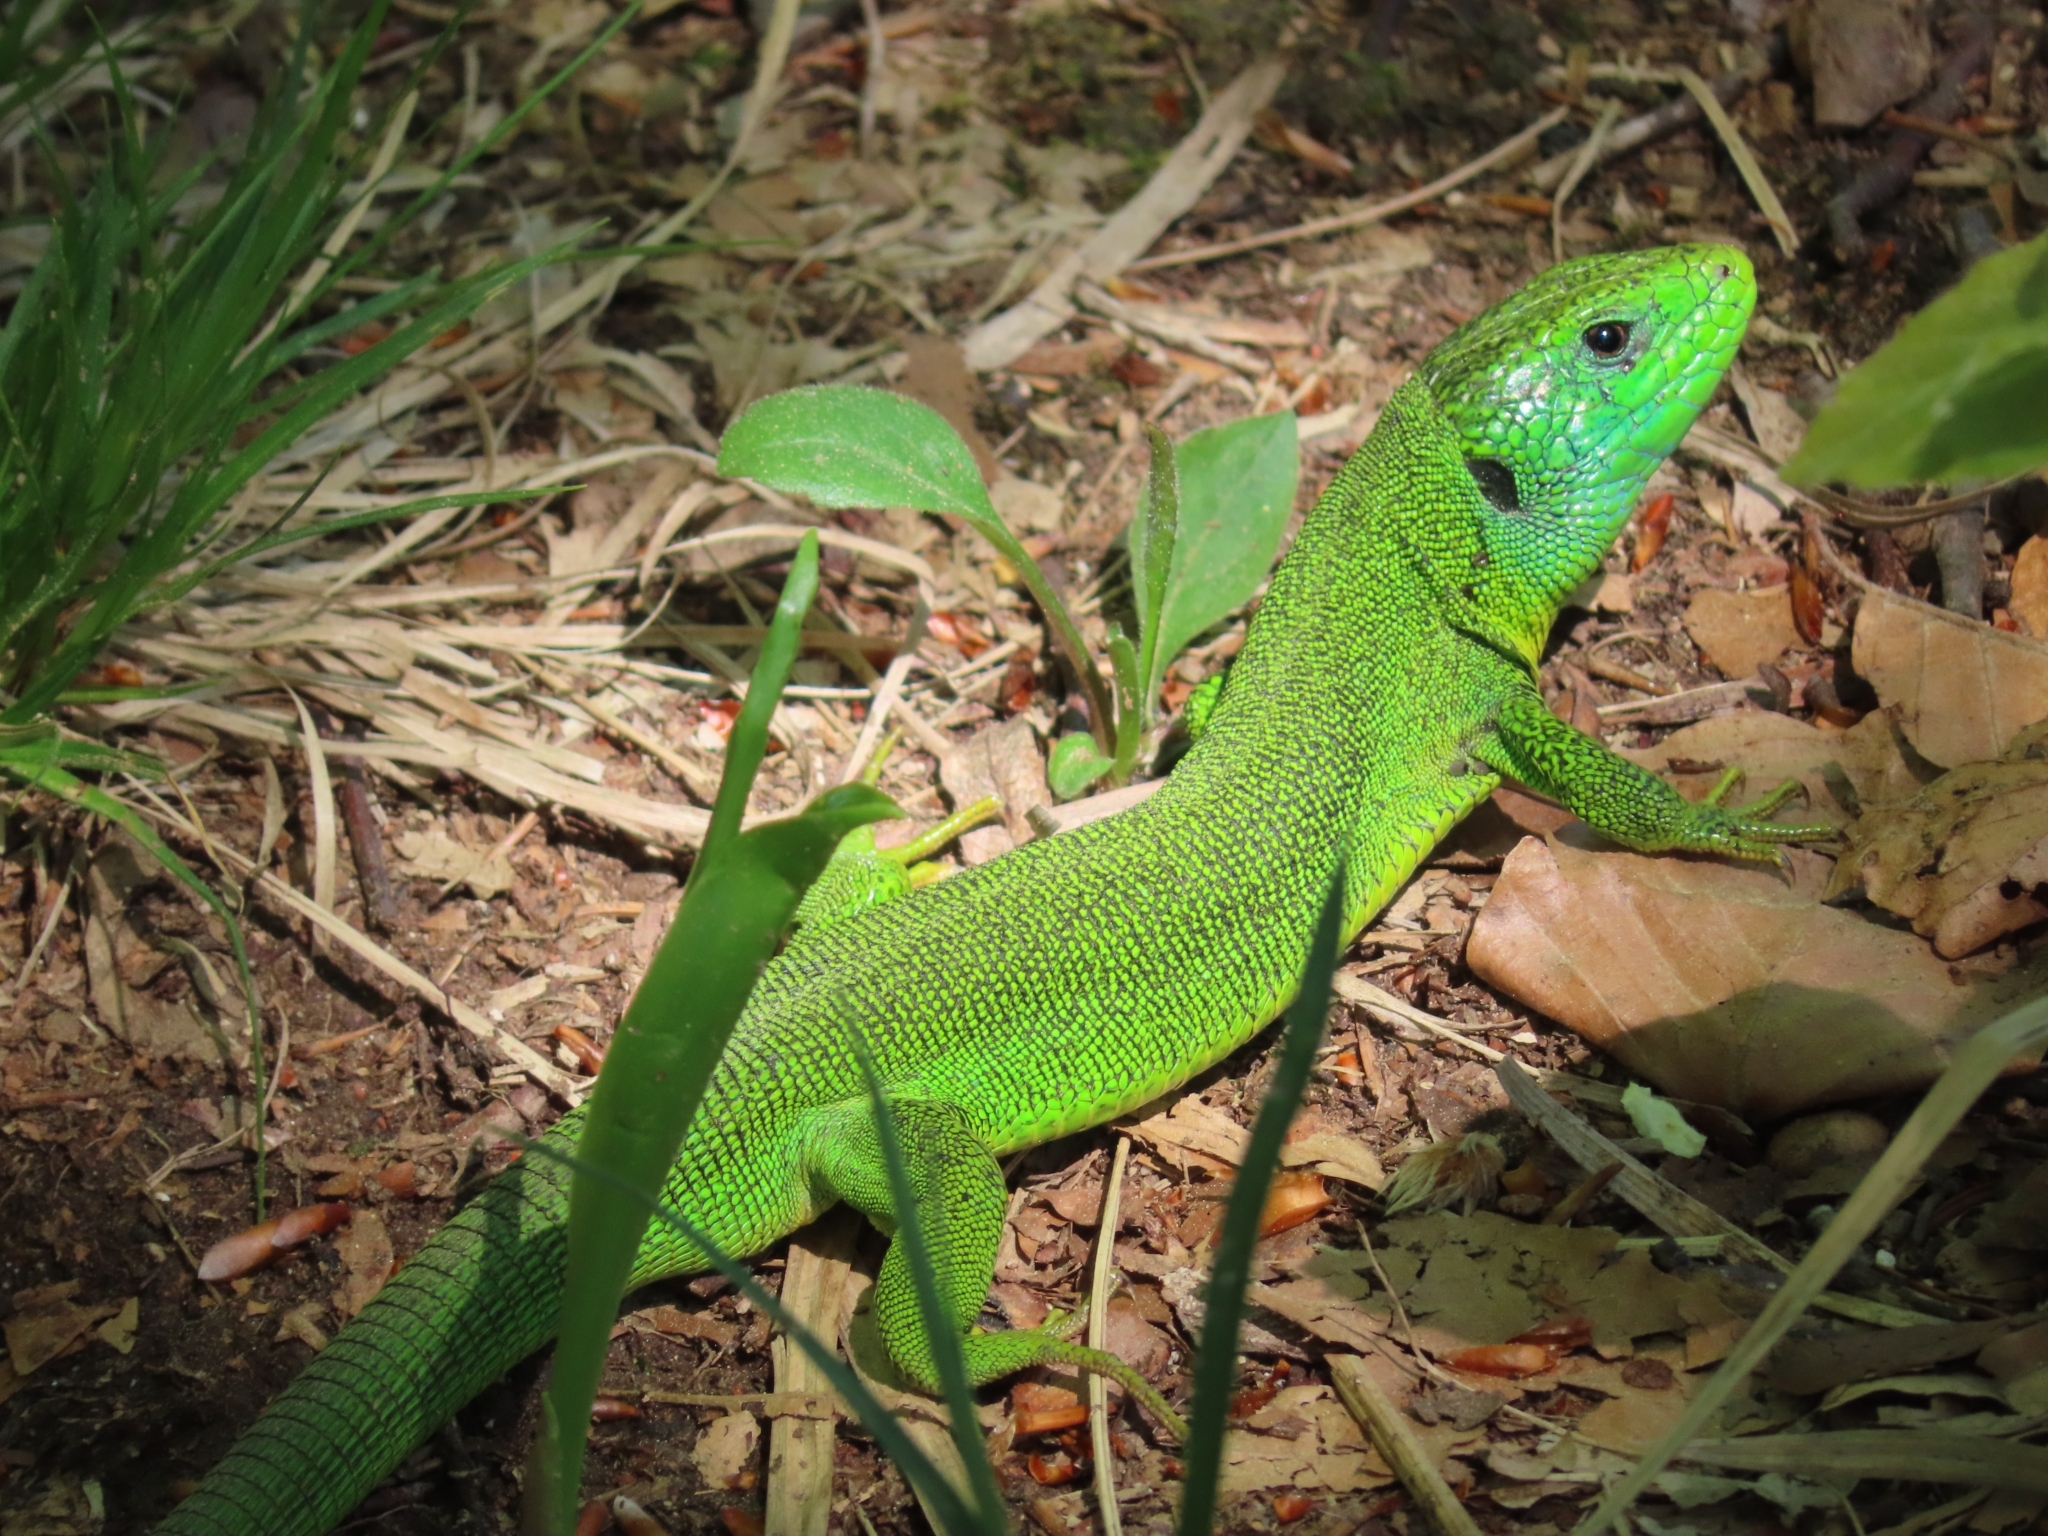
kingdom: Animalia
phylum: Chordata
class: Squamata
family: Lacertidae
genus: Lacerta
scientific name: Lacerta viridis
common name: European green lizard
